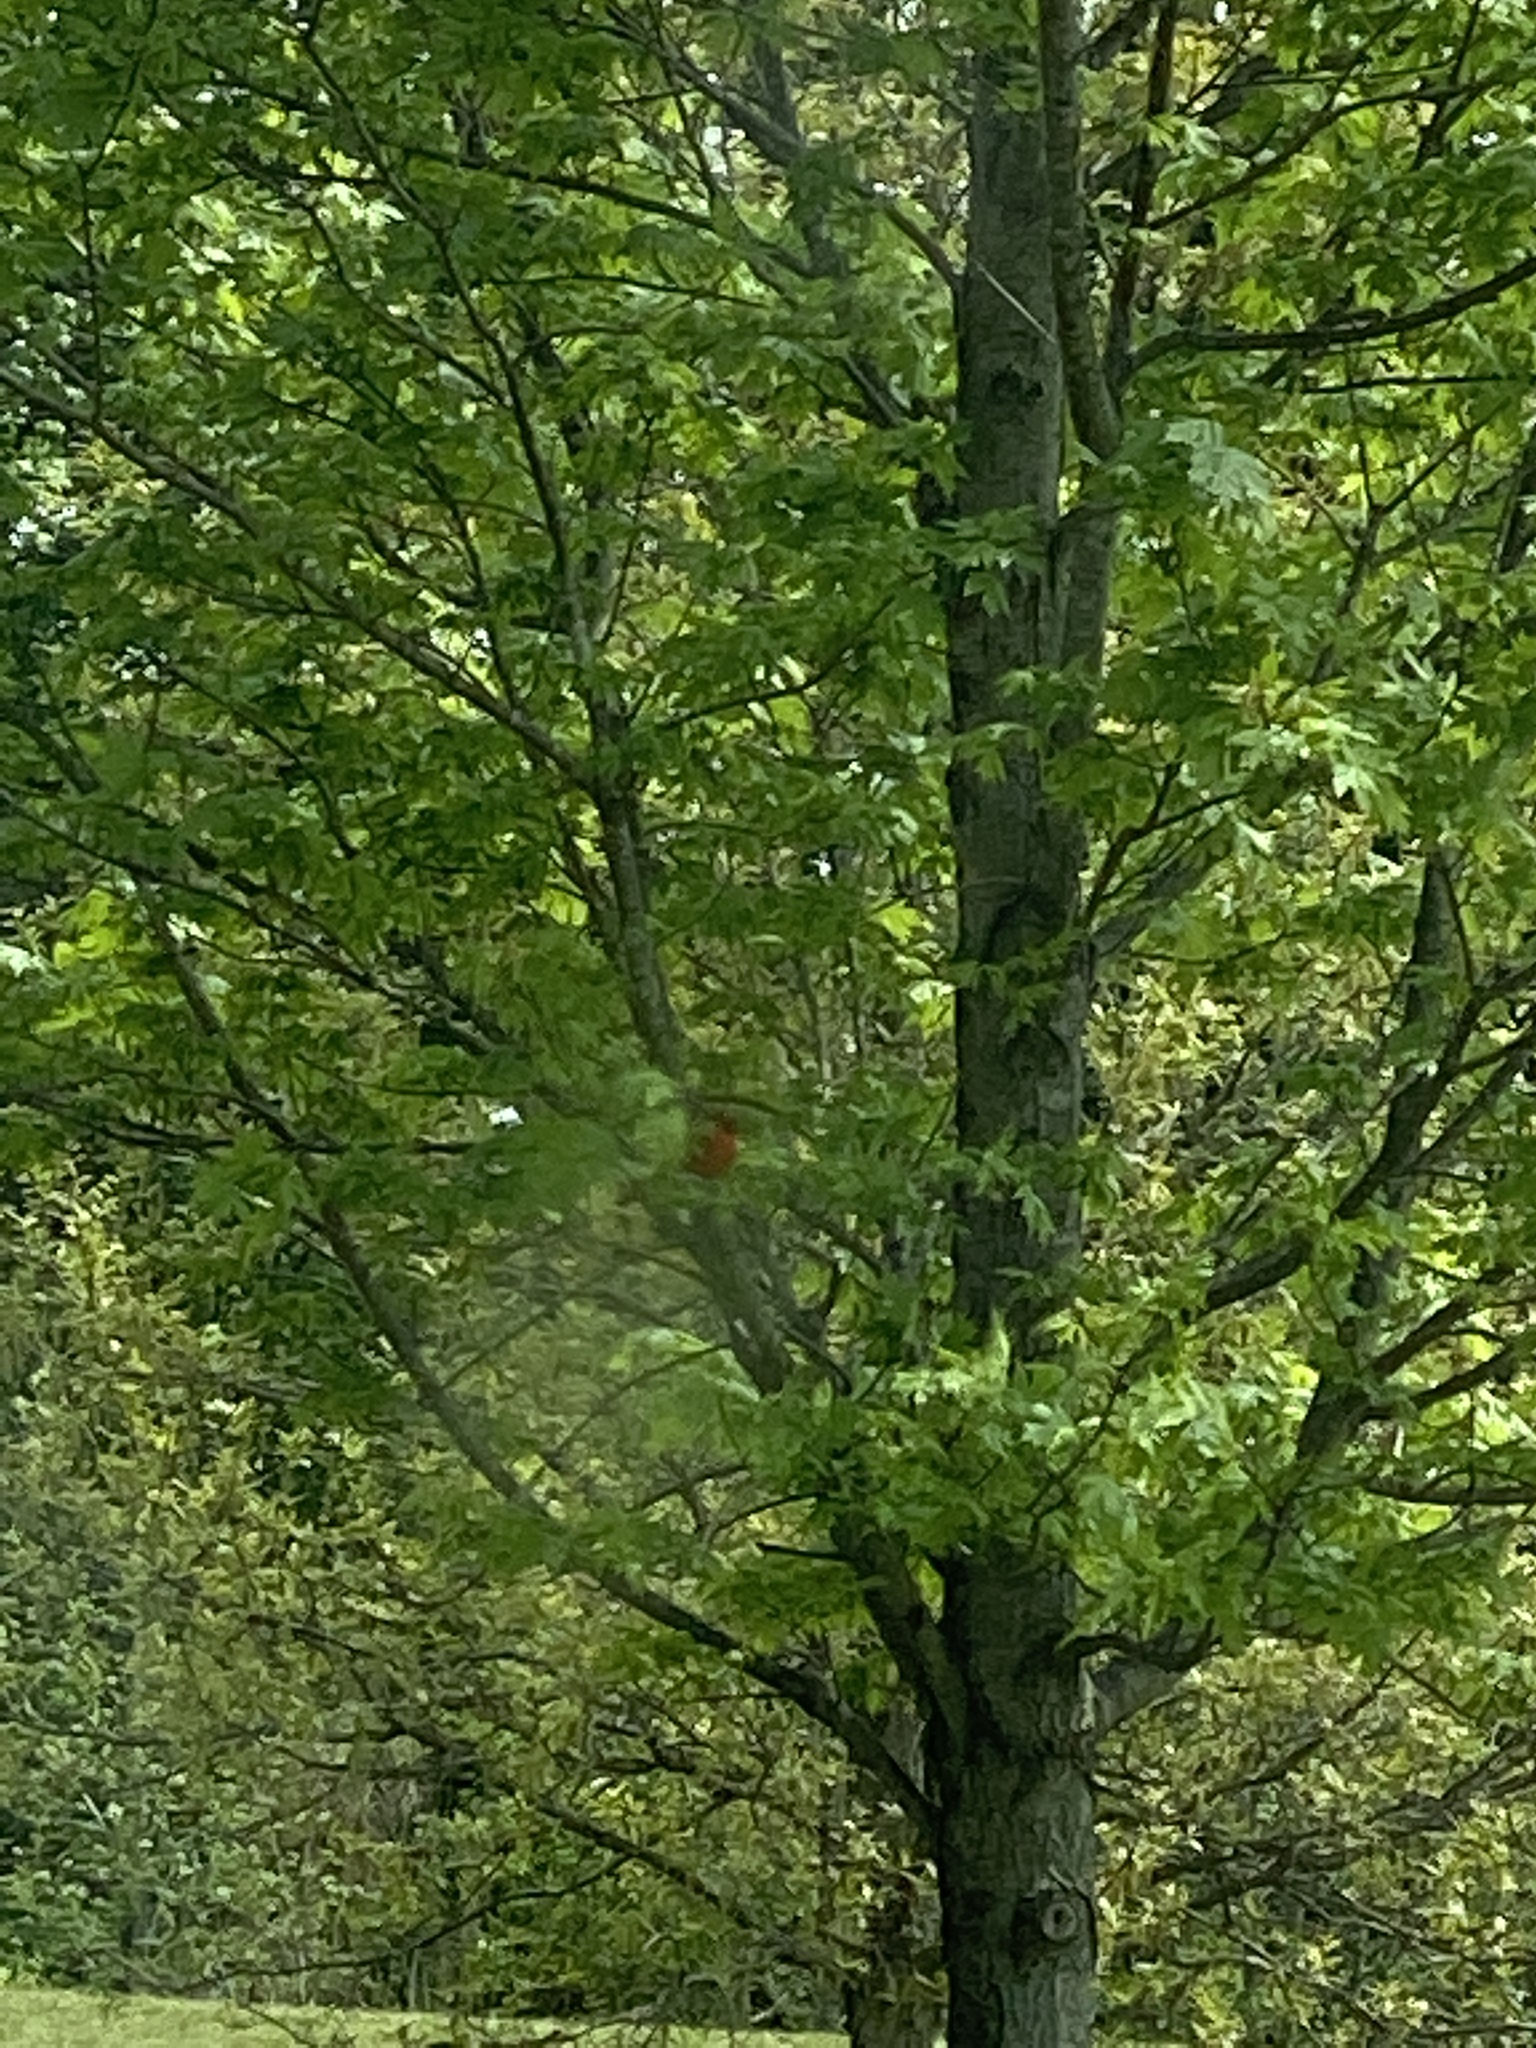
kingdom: Animalia
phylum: Chordata
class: Aves
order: Passeriformes
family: Cardinalidae
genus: Cardinalis
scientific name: Cardinalis cardinalis
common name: Northern cardinal
